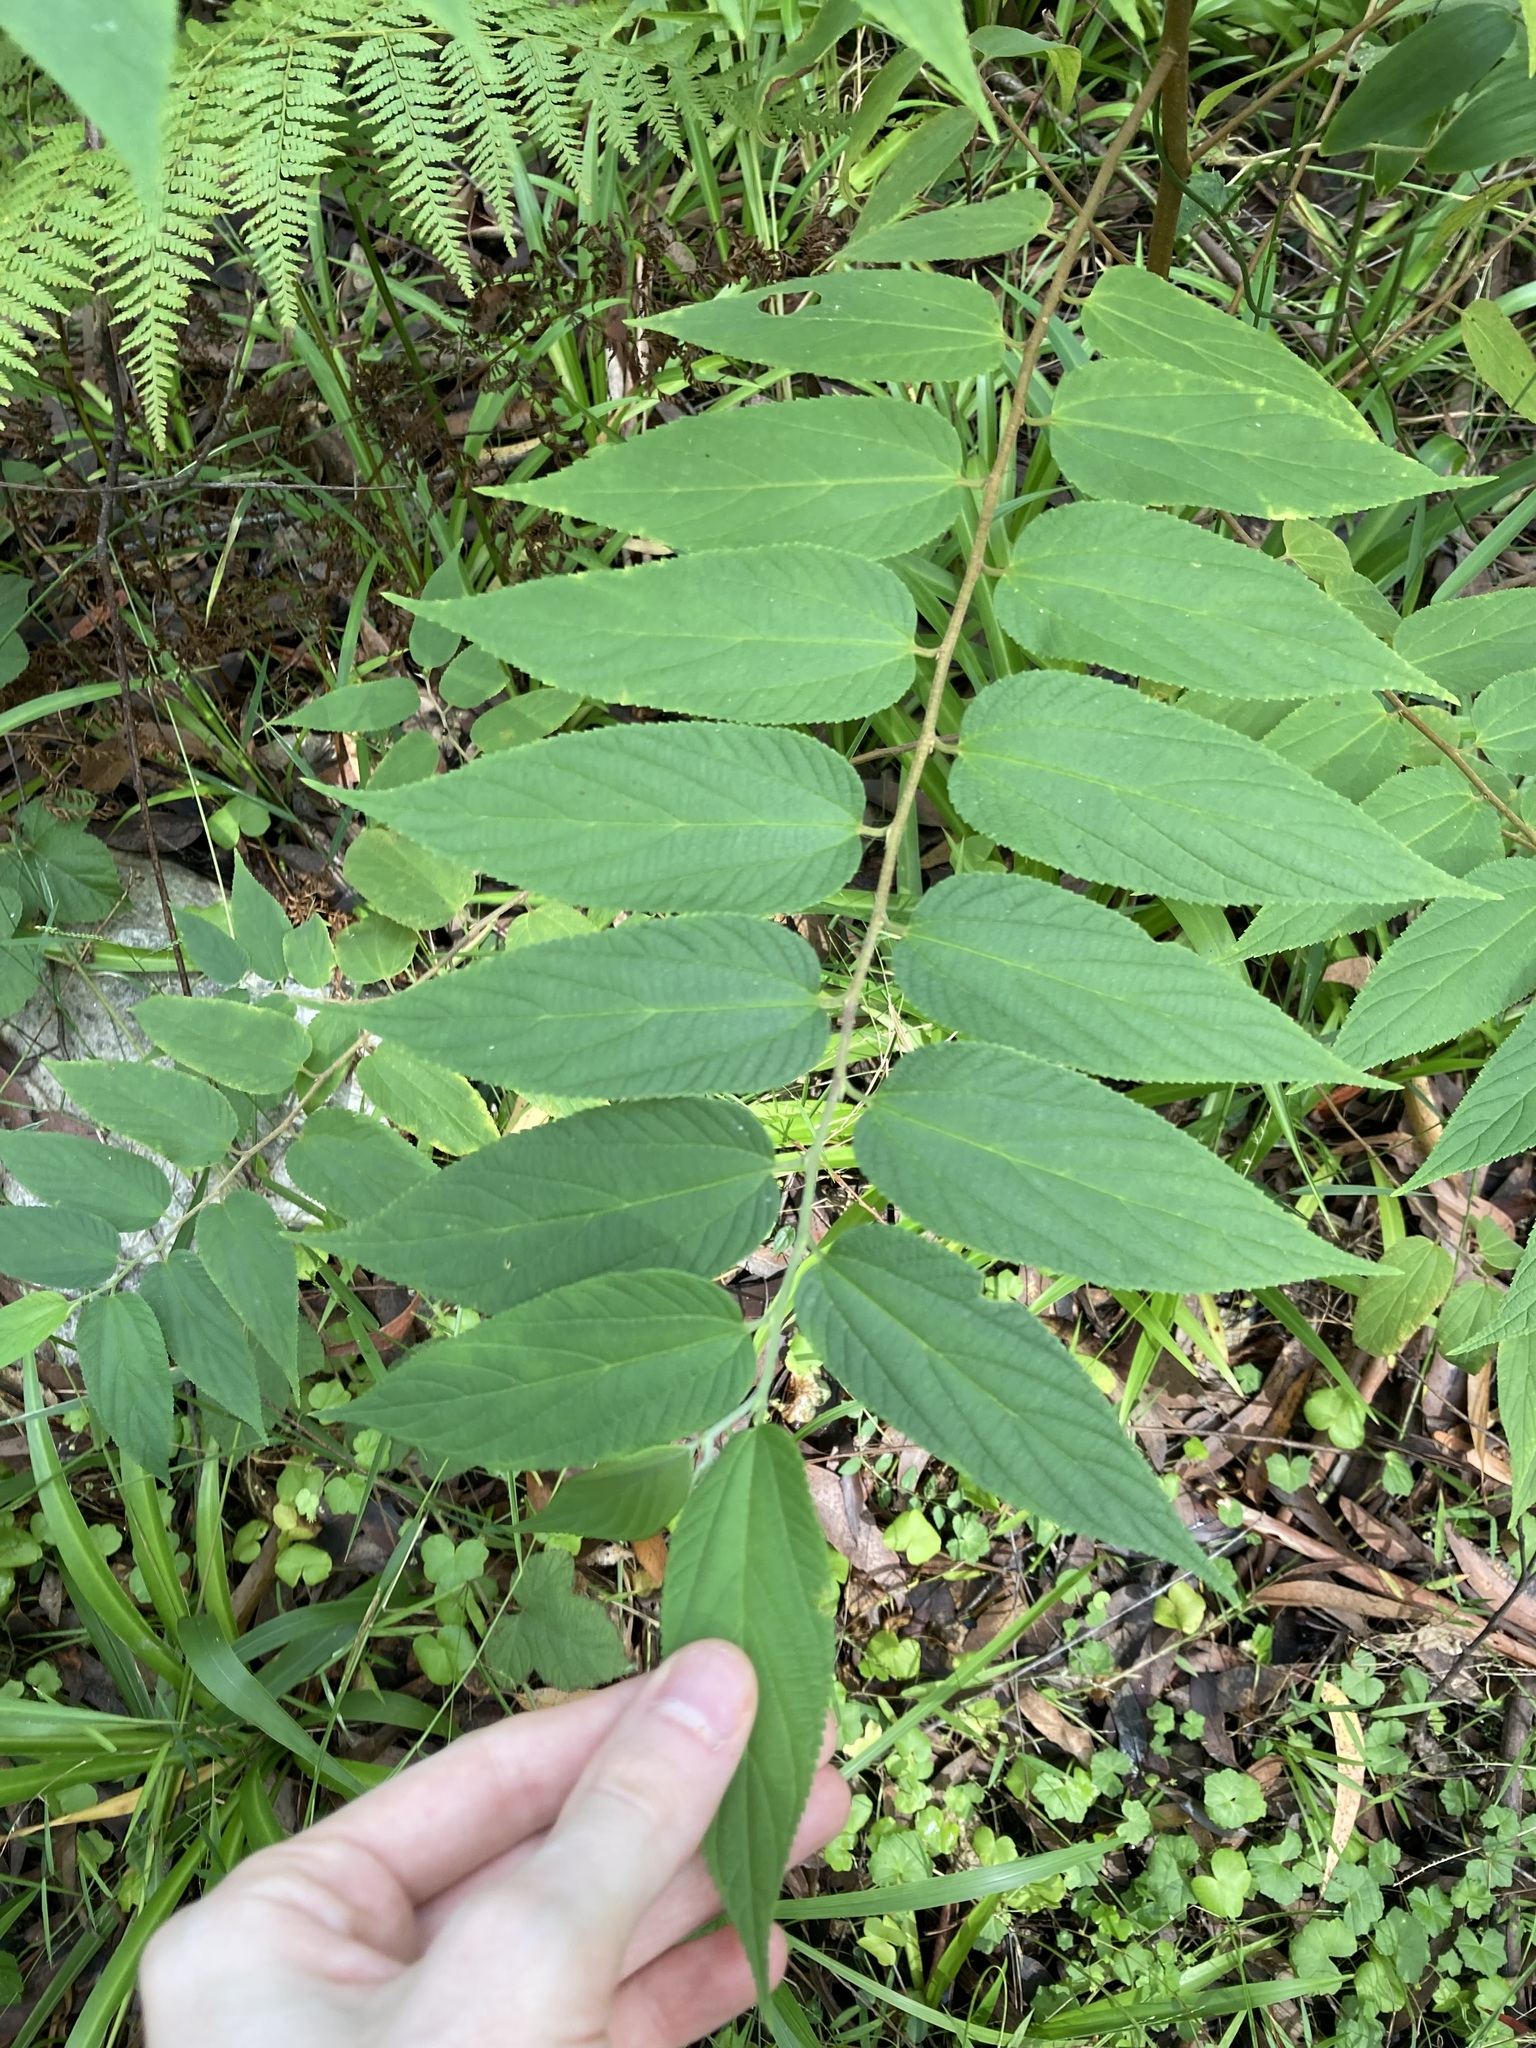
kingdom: Plantae
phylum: Tracheophyta
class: Magnoliopsida
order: Rosales
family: Cannabaceae
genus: Trema
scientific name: Trema tomentosum
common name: Peach-leaf-poisonbush
